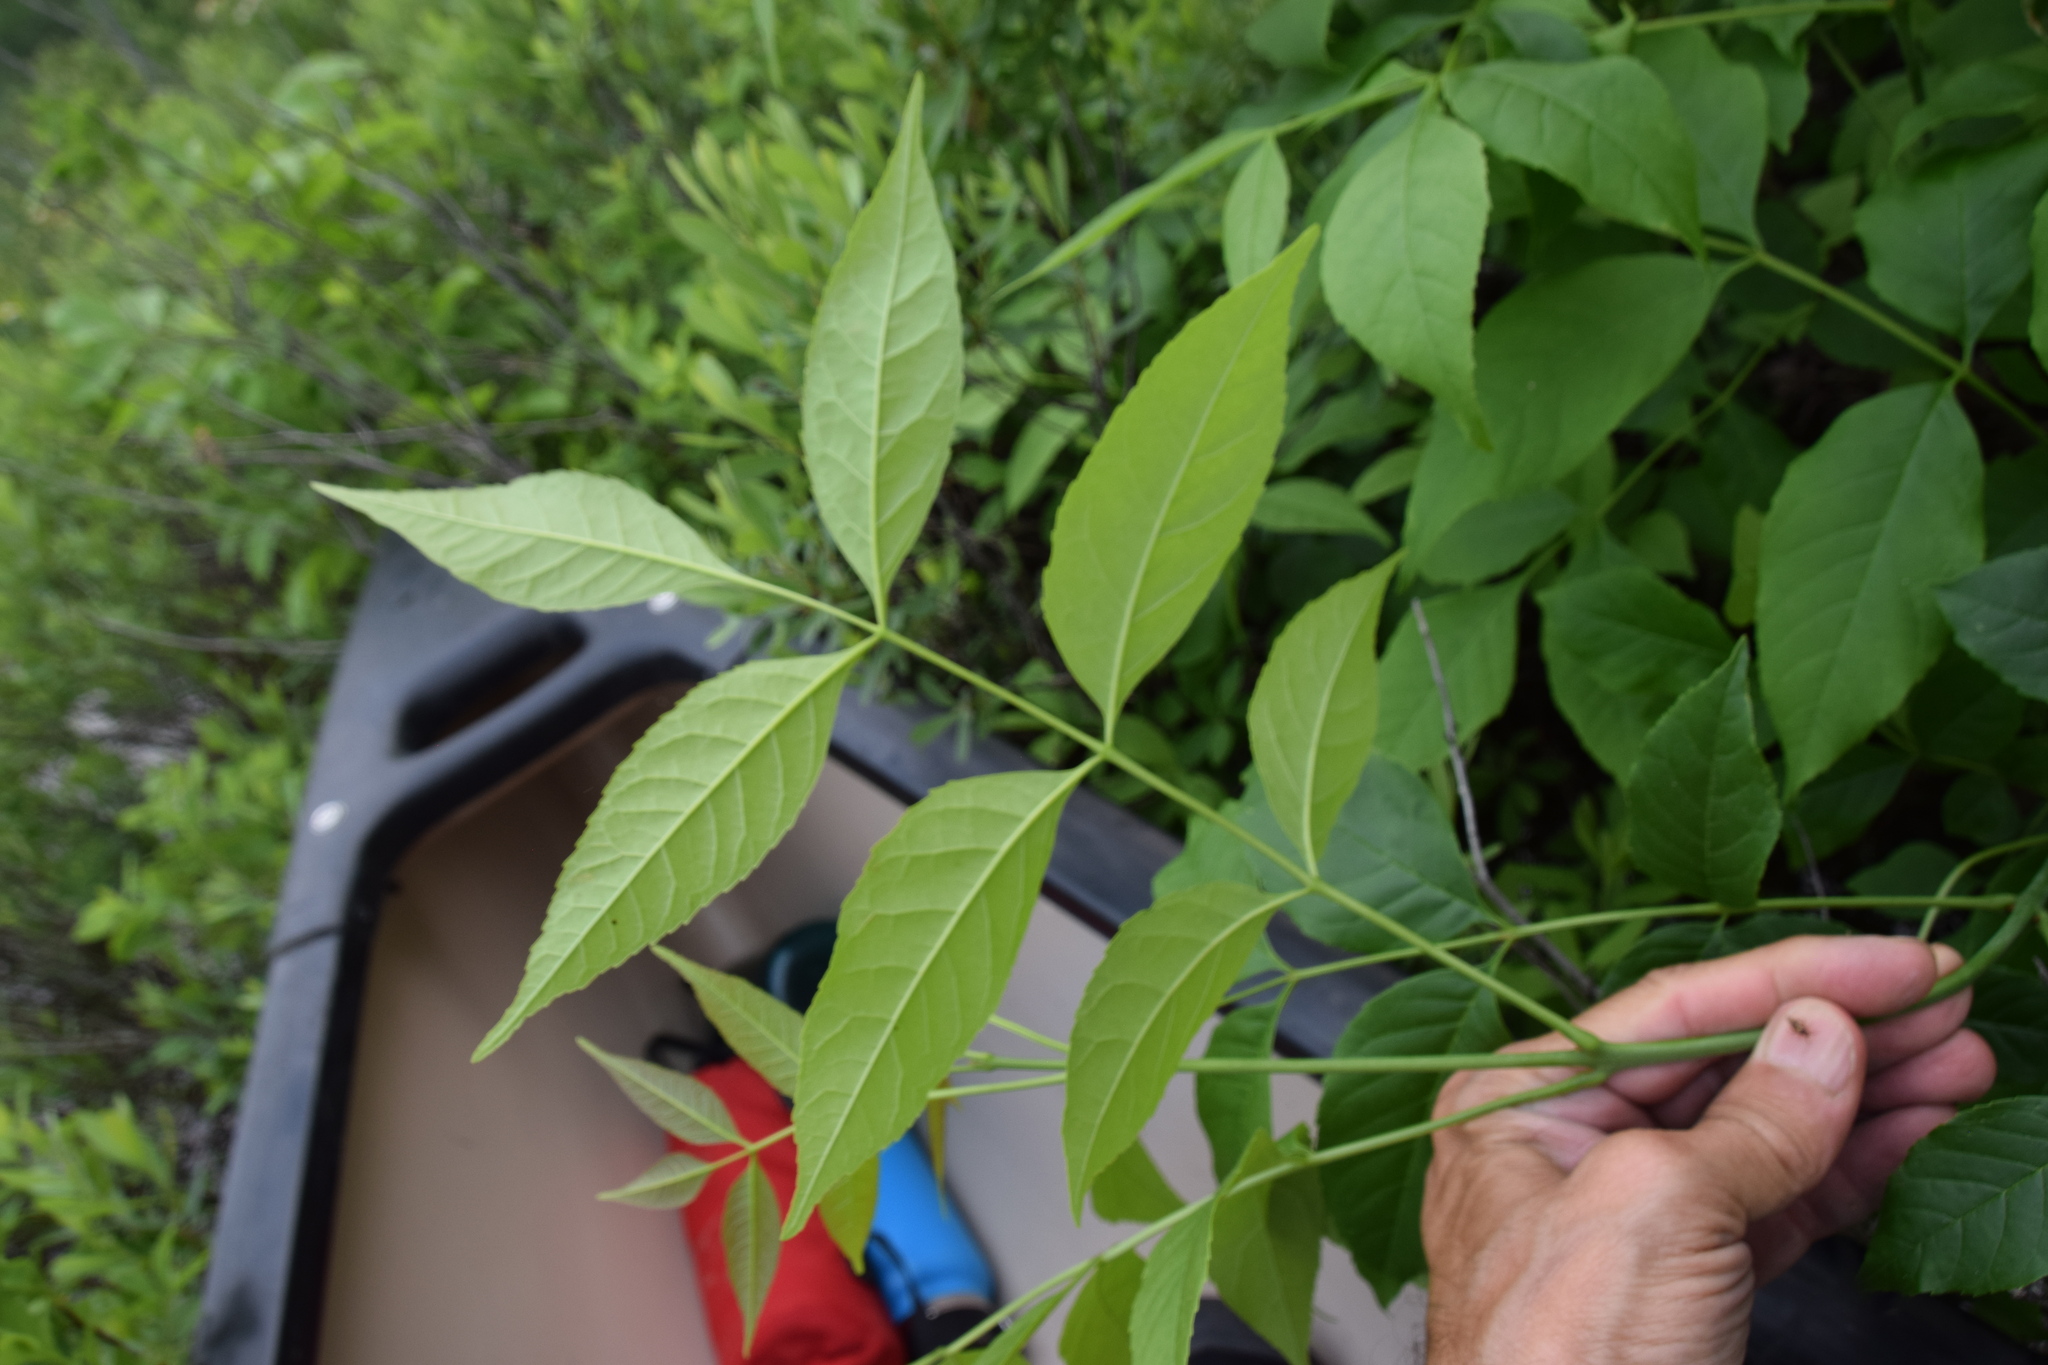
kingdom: Plantae
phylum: Tracheophyta
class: Magnoliopsida
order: Lamiales
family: Oleaceae
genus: Fraxinus
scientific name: Fraxinus pennsylvanica
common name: Green ash
